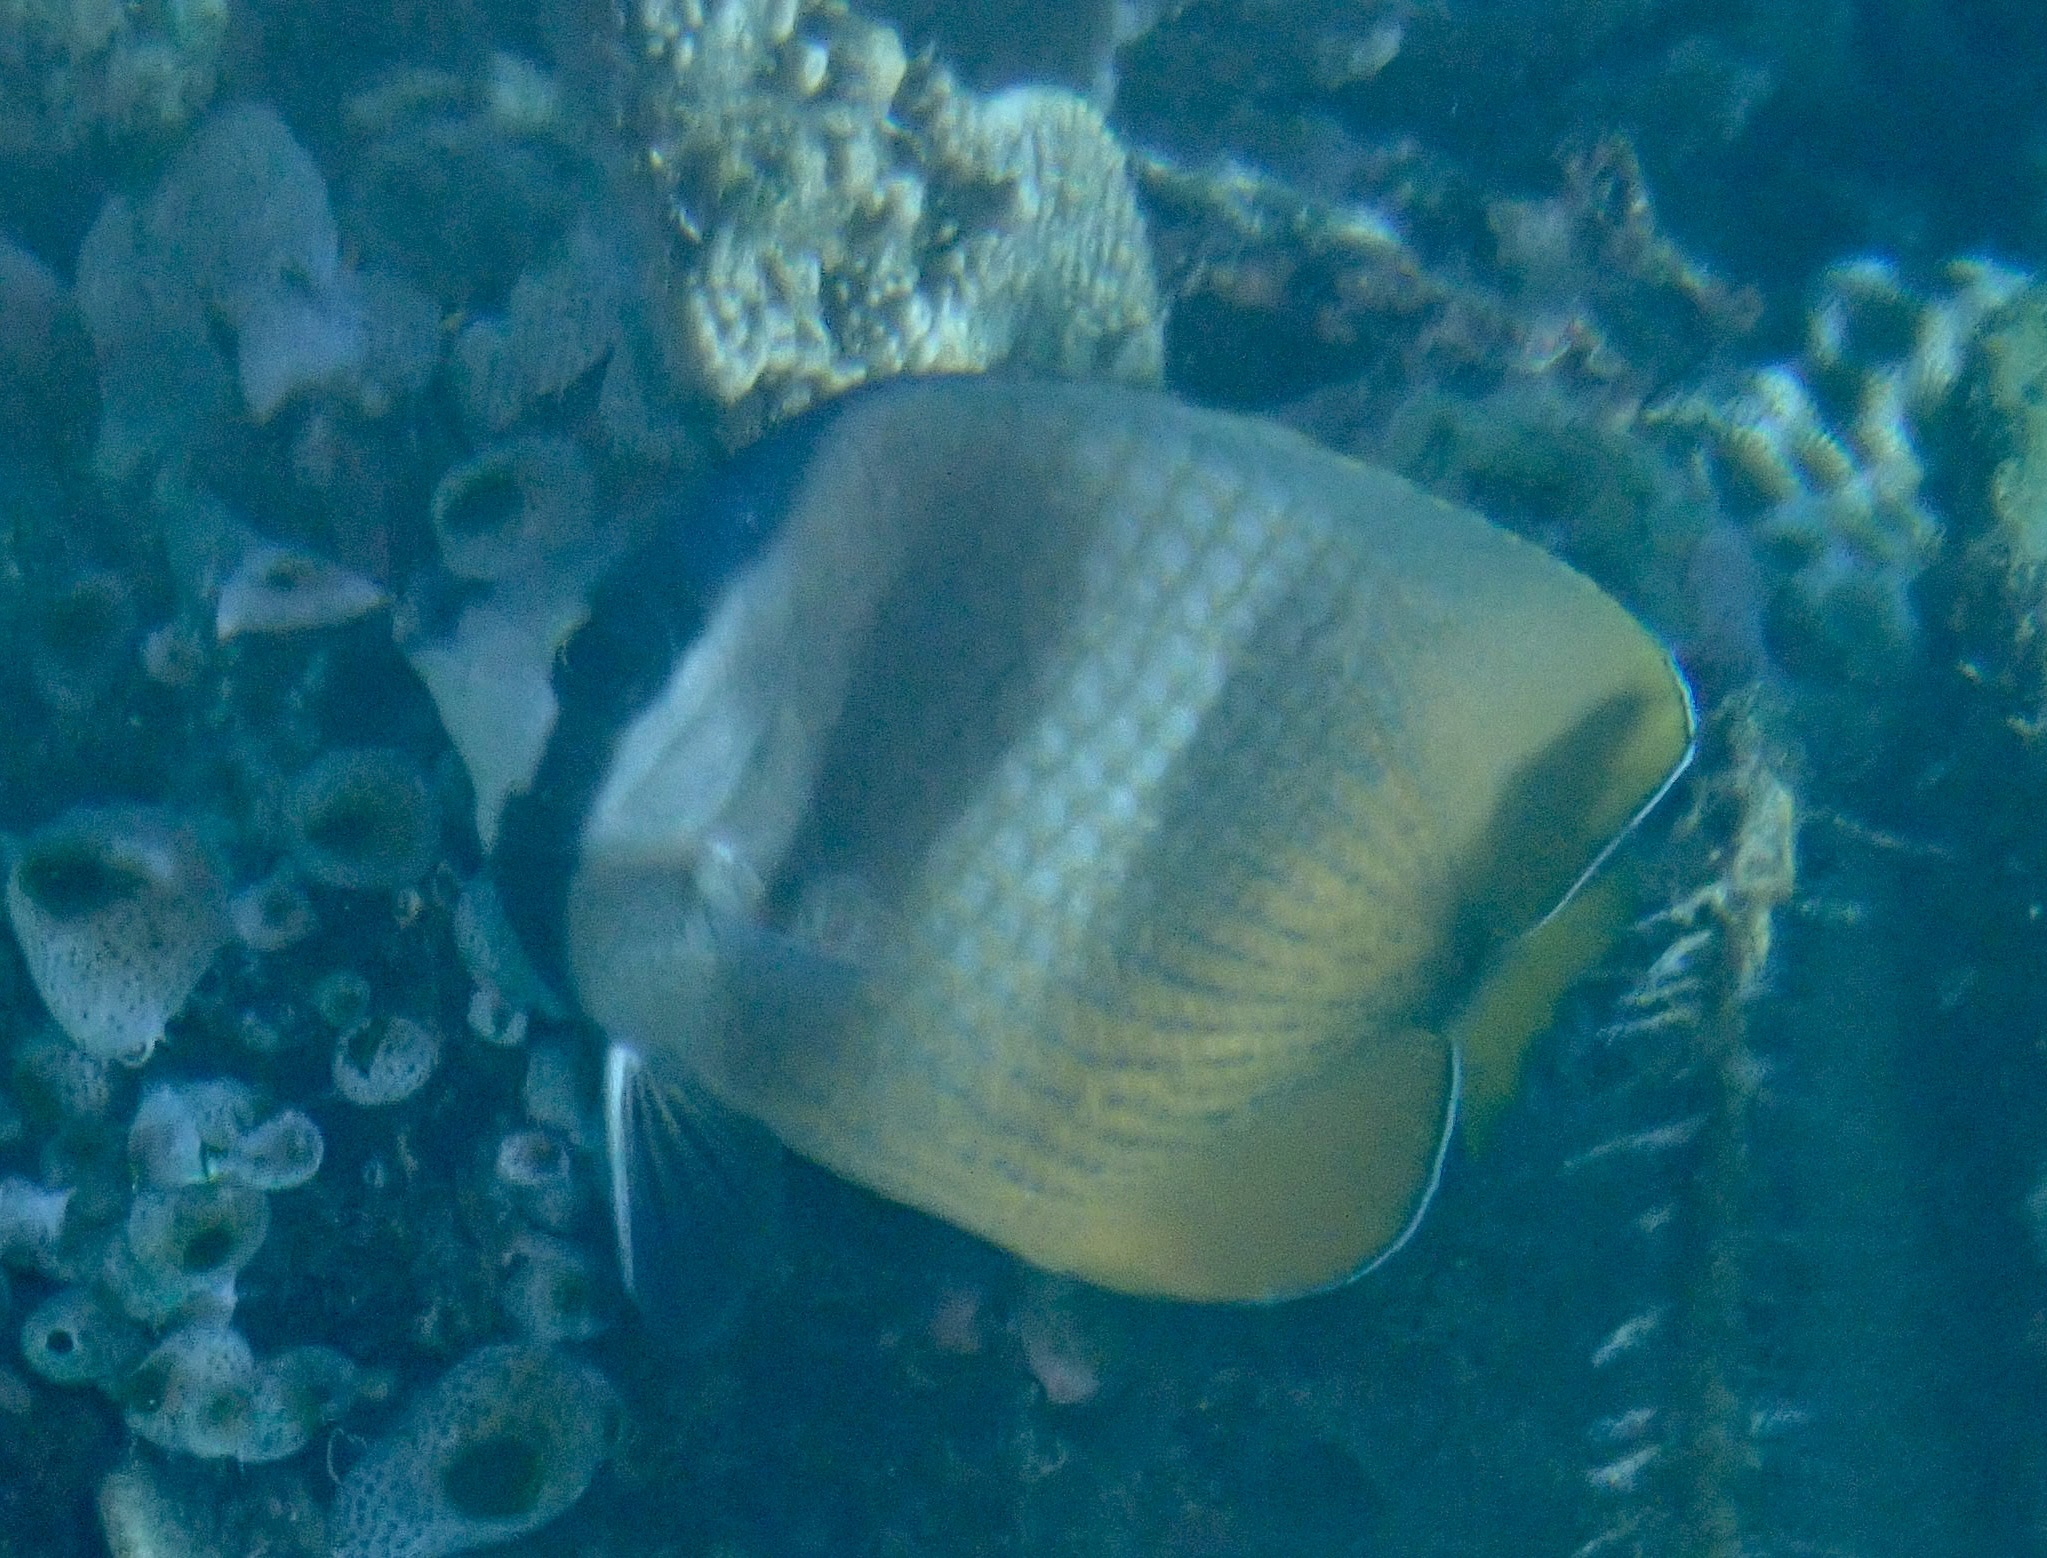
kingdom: Animalia
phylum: Chordata
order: Perciformes
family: Chaetodontidae
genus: Chaetodon
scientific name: Chaetodon kleinii
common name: Klein's butterflyfish
